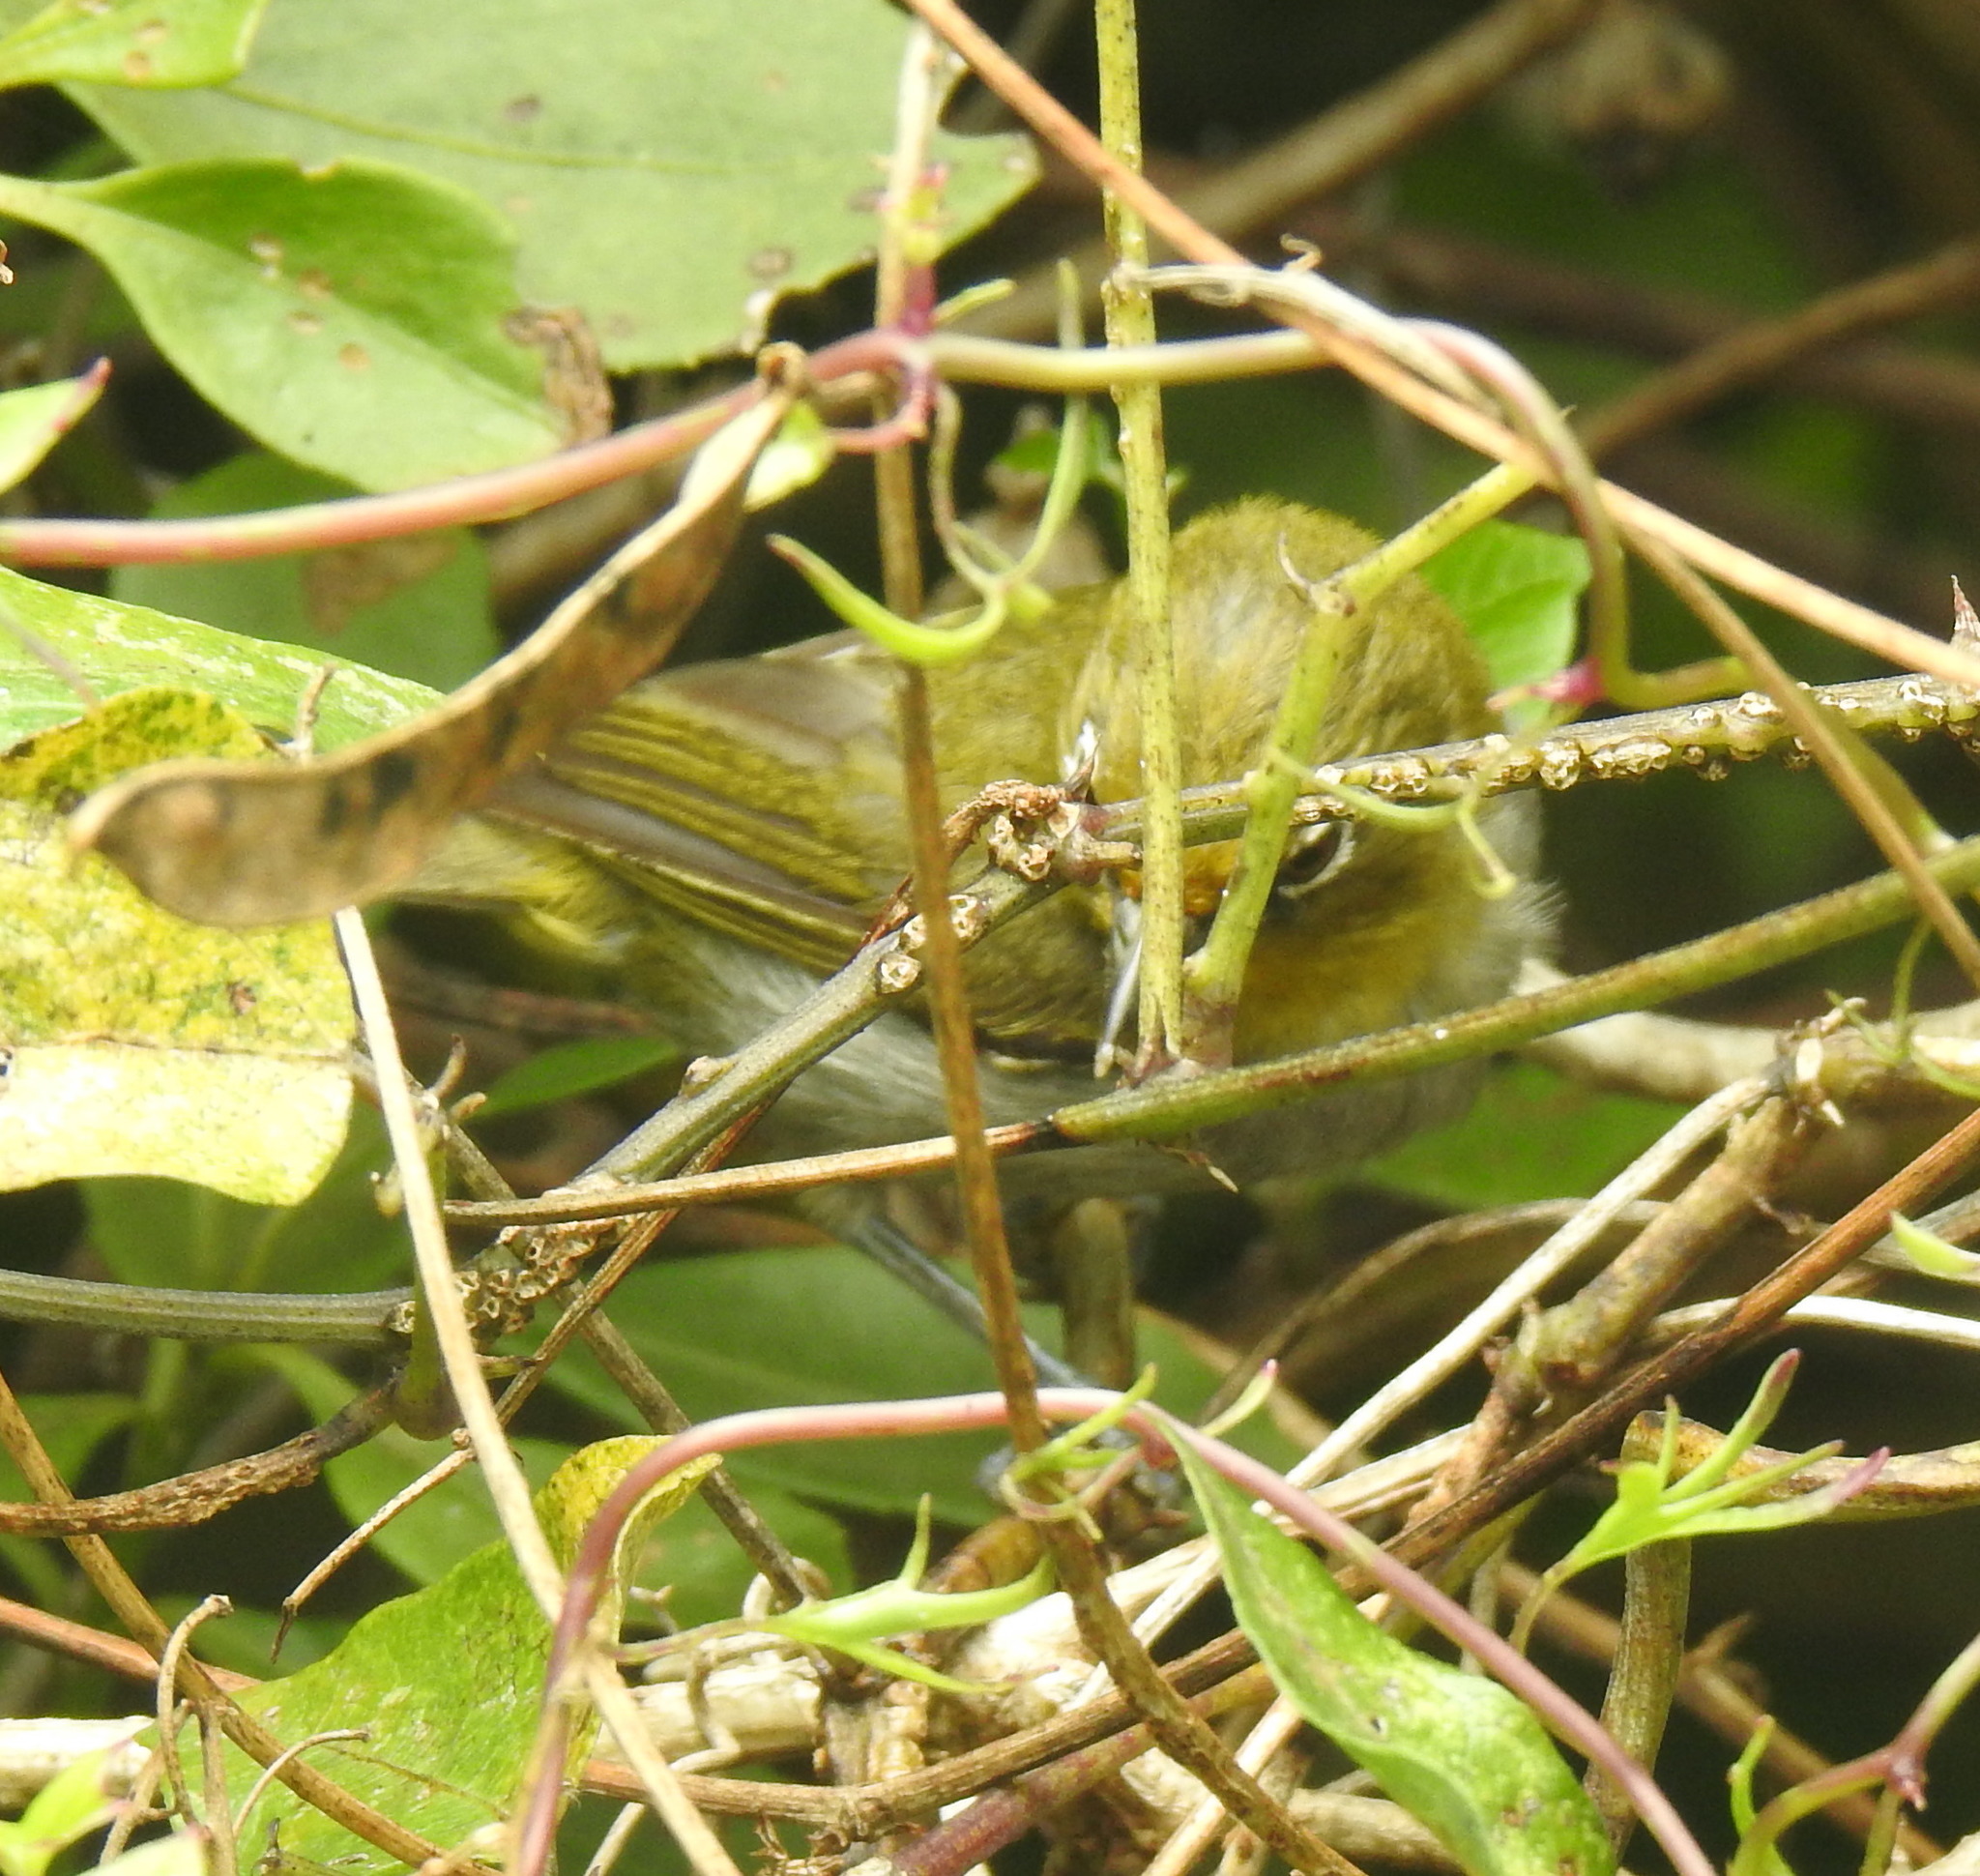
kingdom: Animalia
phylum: Chordata
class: Aves
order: Passeriformes
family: Zosteropidae
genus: Zosterops
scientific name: Zosterops virens
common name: Cape white-eye
